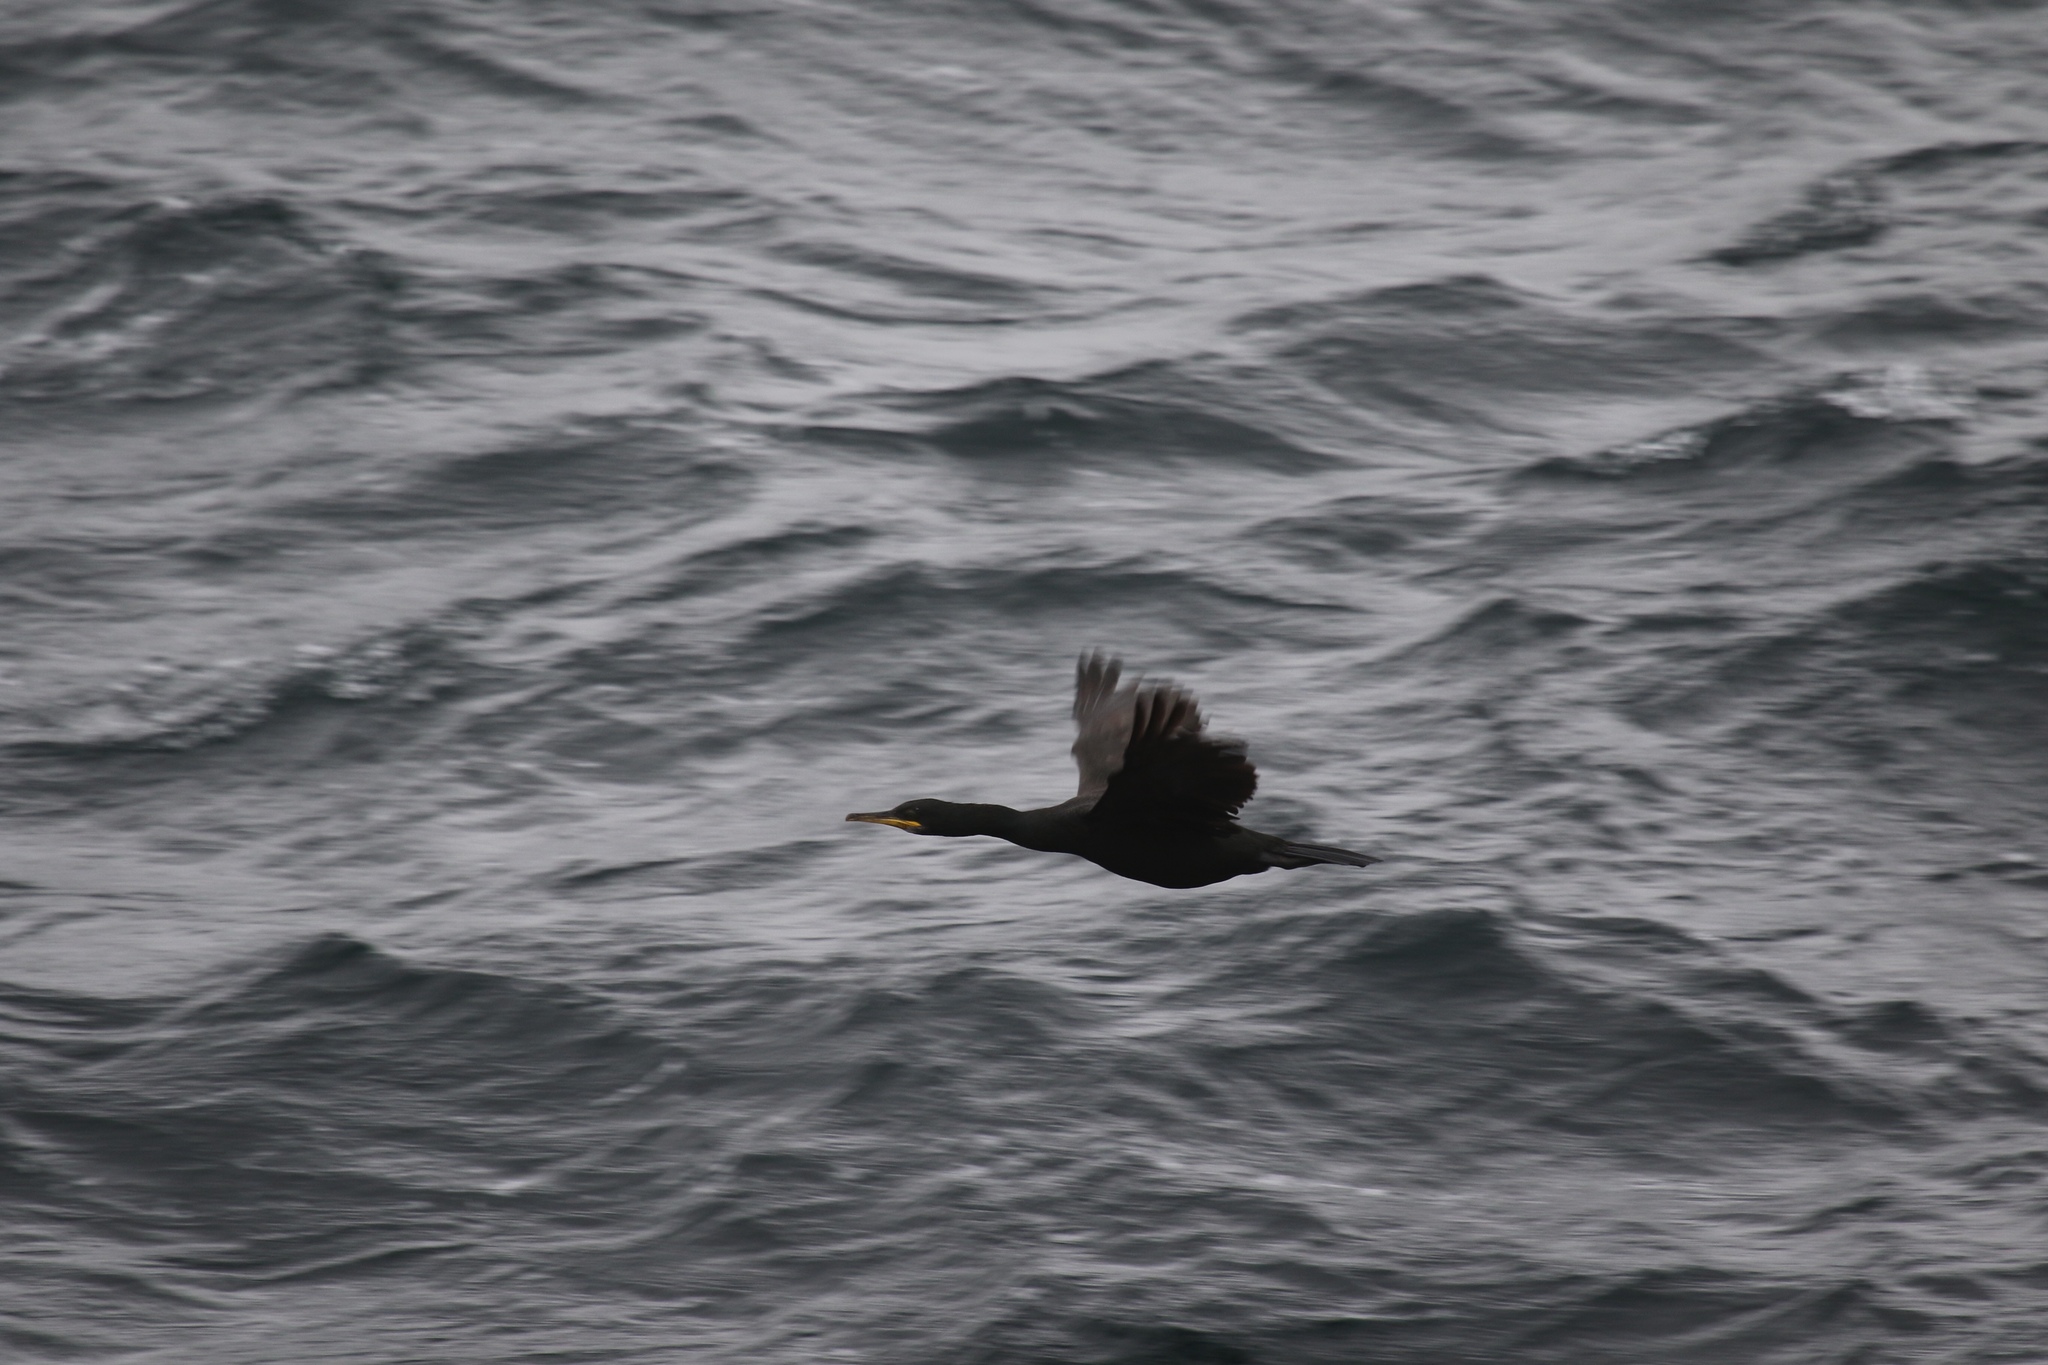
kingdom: Animalia
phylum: Chordata
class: Aves
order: Suliformes
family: Phalacrocoracidae
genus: Phalacrocorax
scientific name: Phalacrocorax aristotelis
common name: European shag
